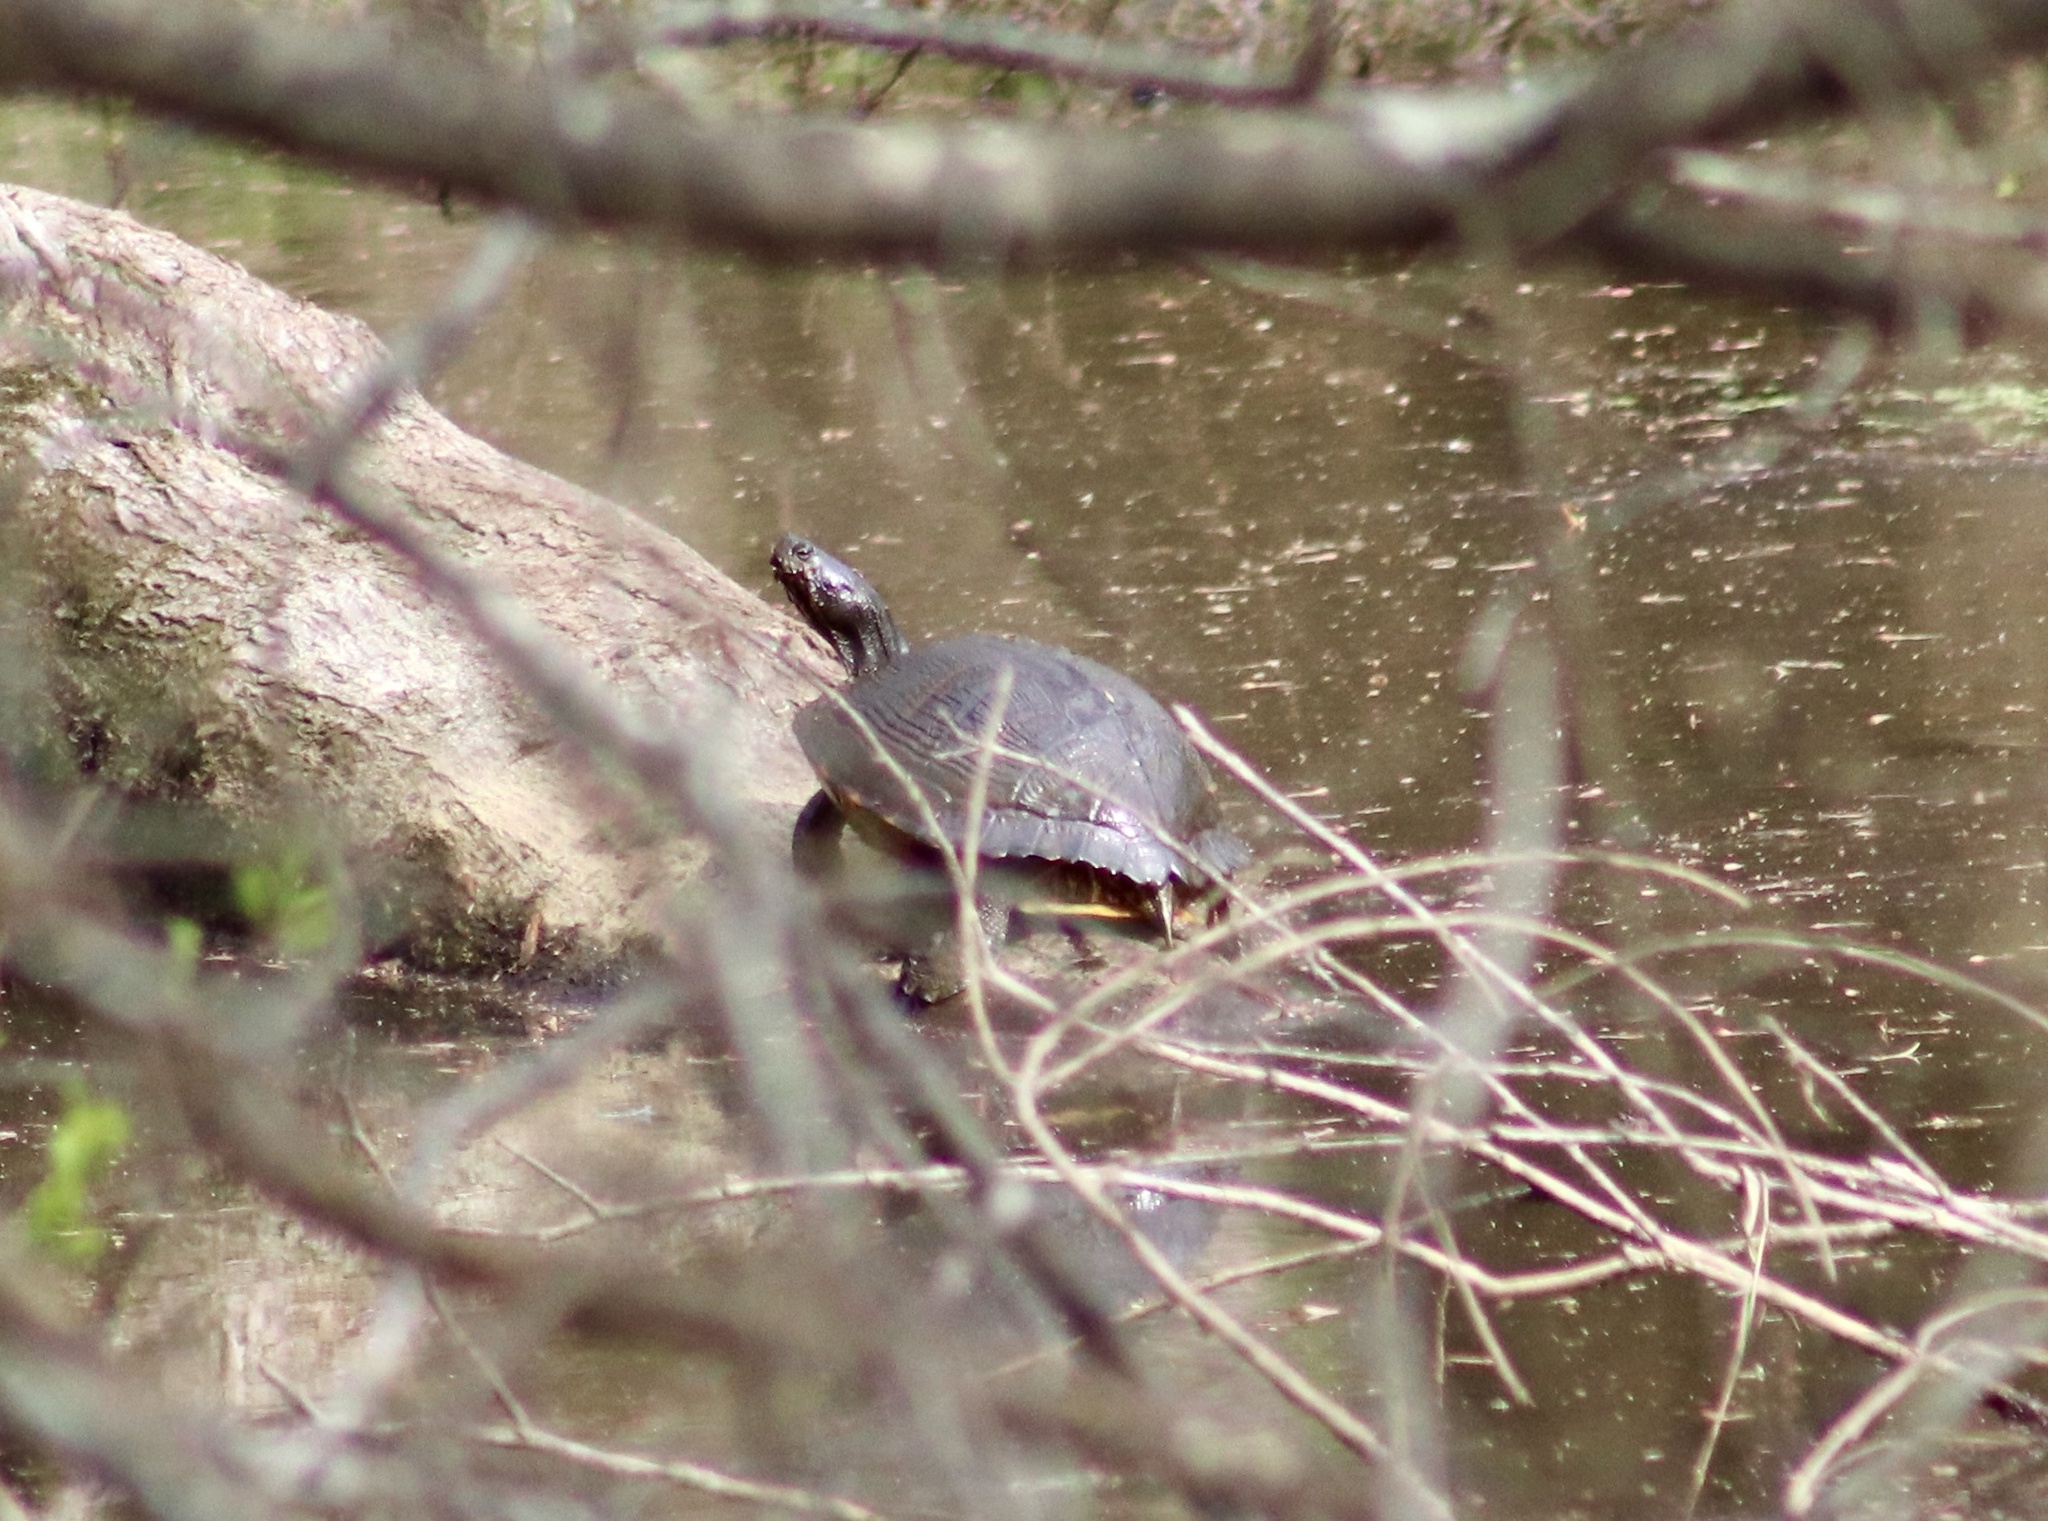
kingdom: Animalia
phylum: Chordata
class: Testudines
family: Emydidae
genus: Trachemys
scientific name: Trachemys scripta
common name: Slider
